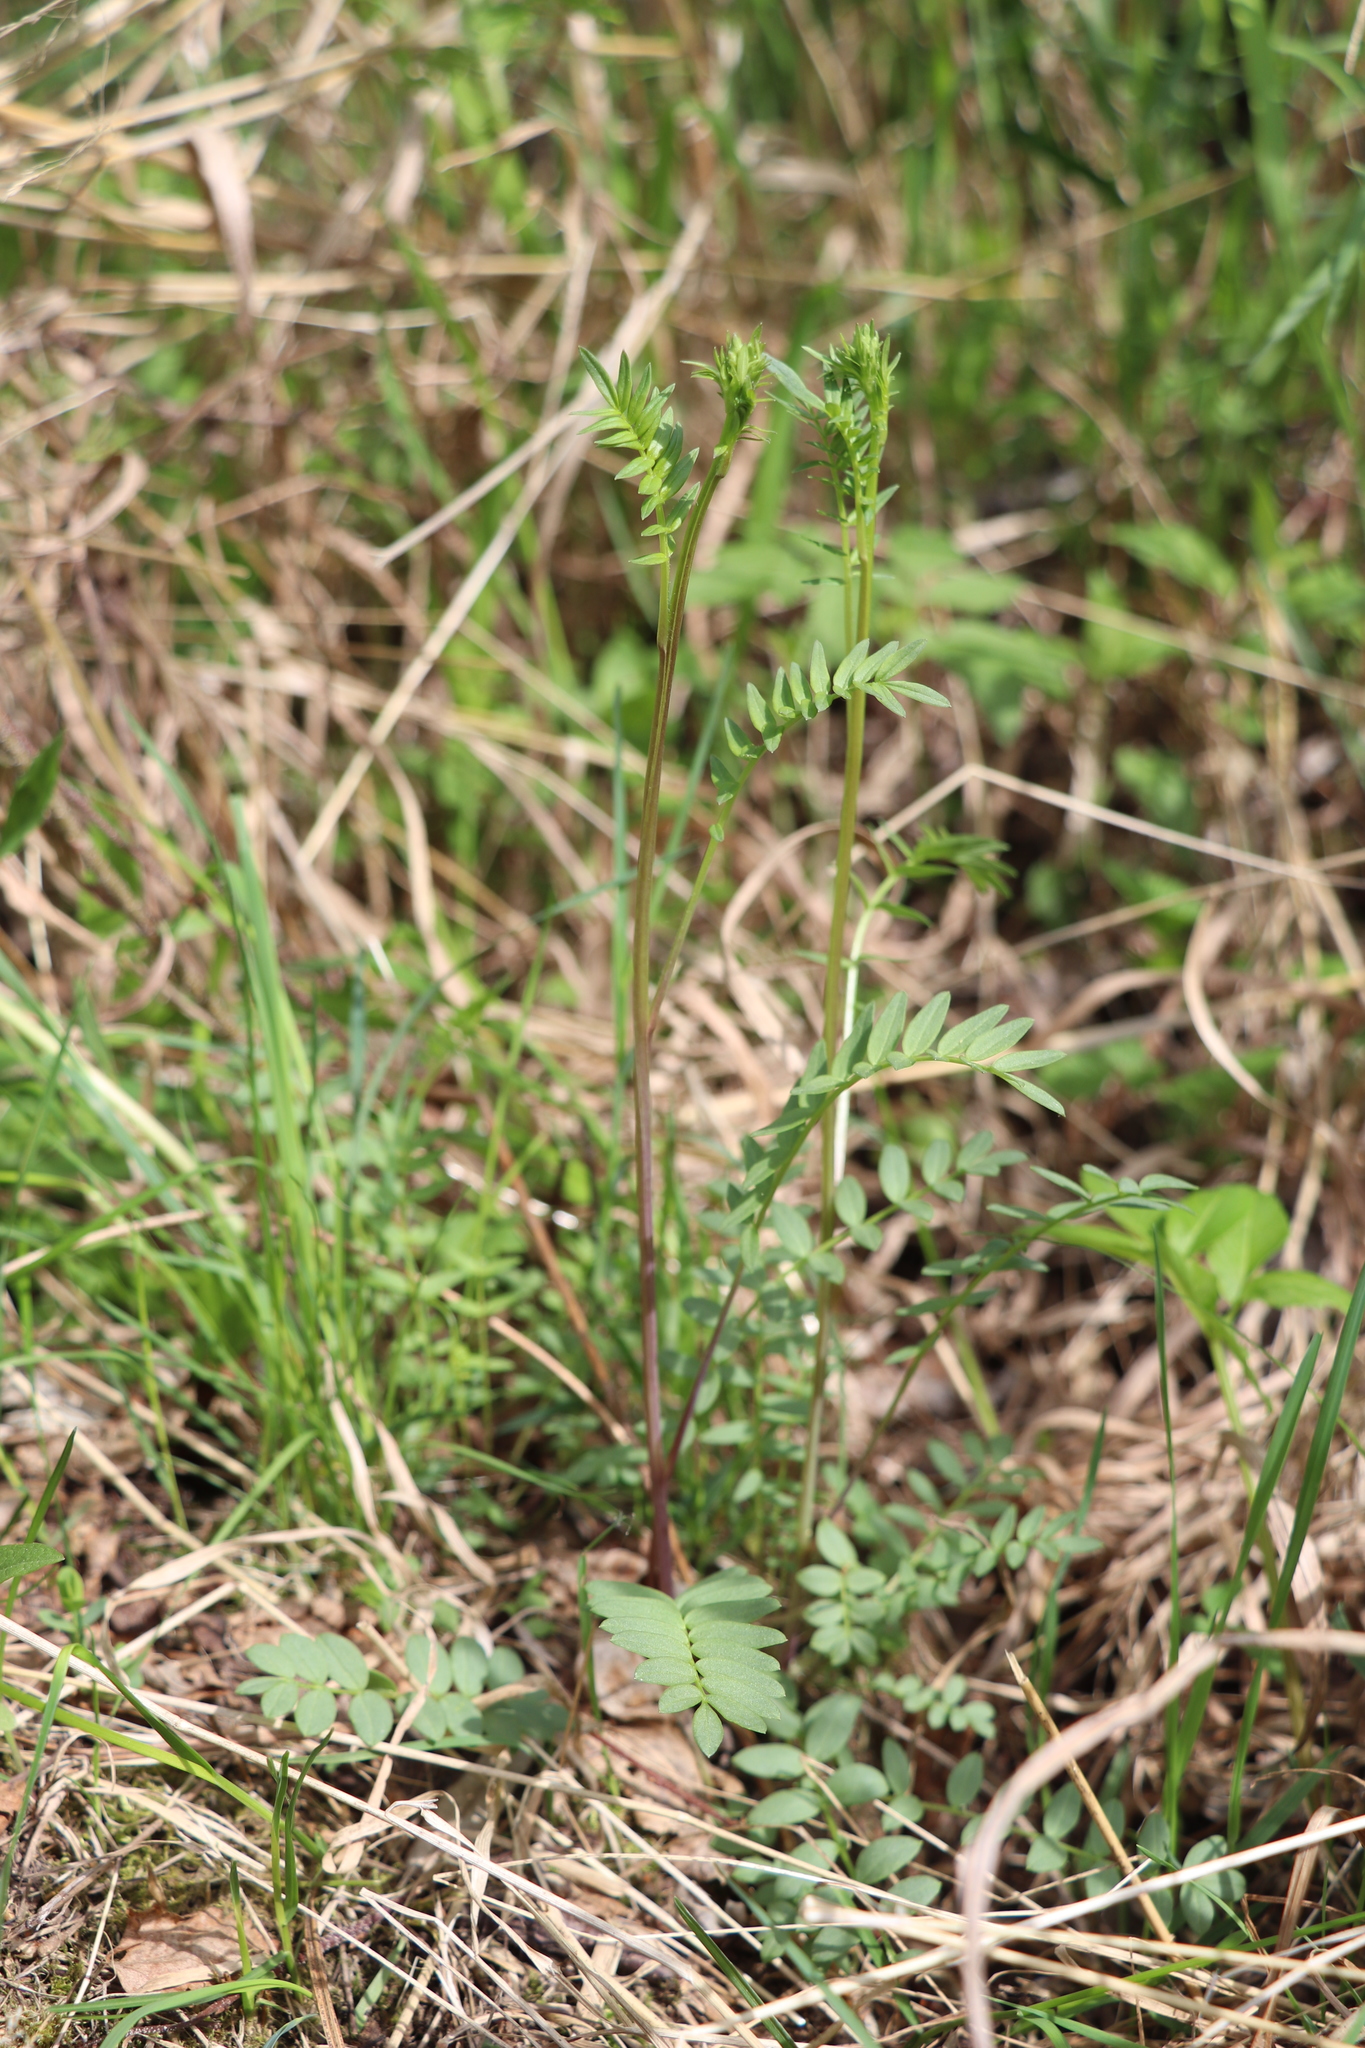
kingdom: Plantae
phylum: Tracheophyta
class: Magnoliopsida
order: Ericales
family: Polemoniaceae
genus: Polemonium
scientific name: Polemonium caeruleum
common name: Jacob's-ladder
